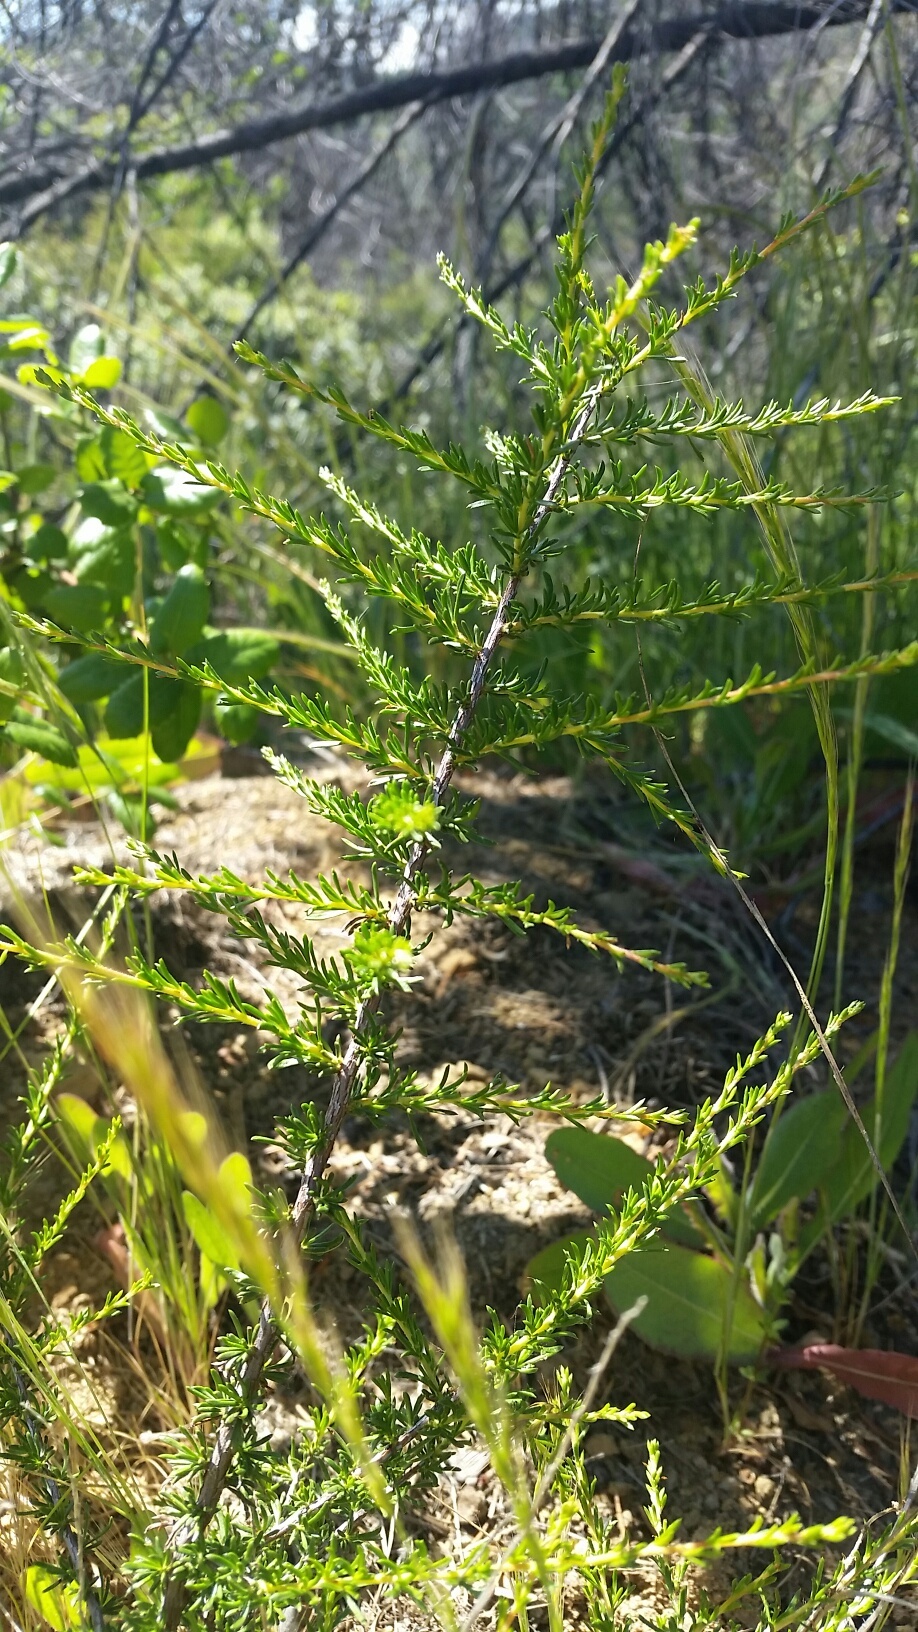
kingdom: Plantae
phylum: Tracheophyta
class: Magnoliopsida
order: Rosales
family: Rosaceae
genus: Adenostoma
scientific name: Adenostoma fasciculatum
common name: Chamise
